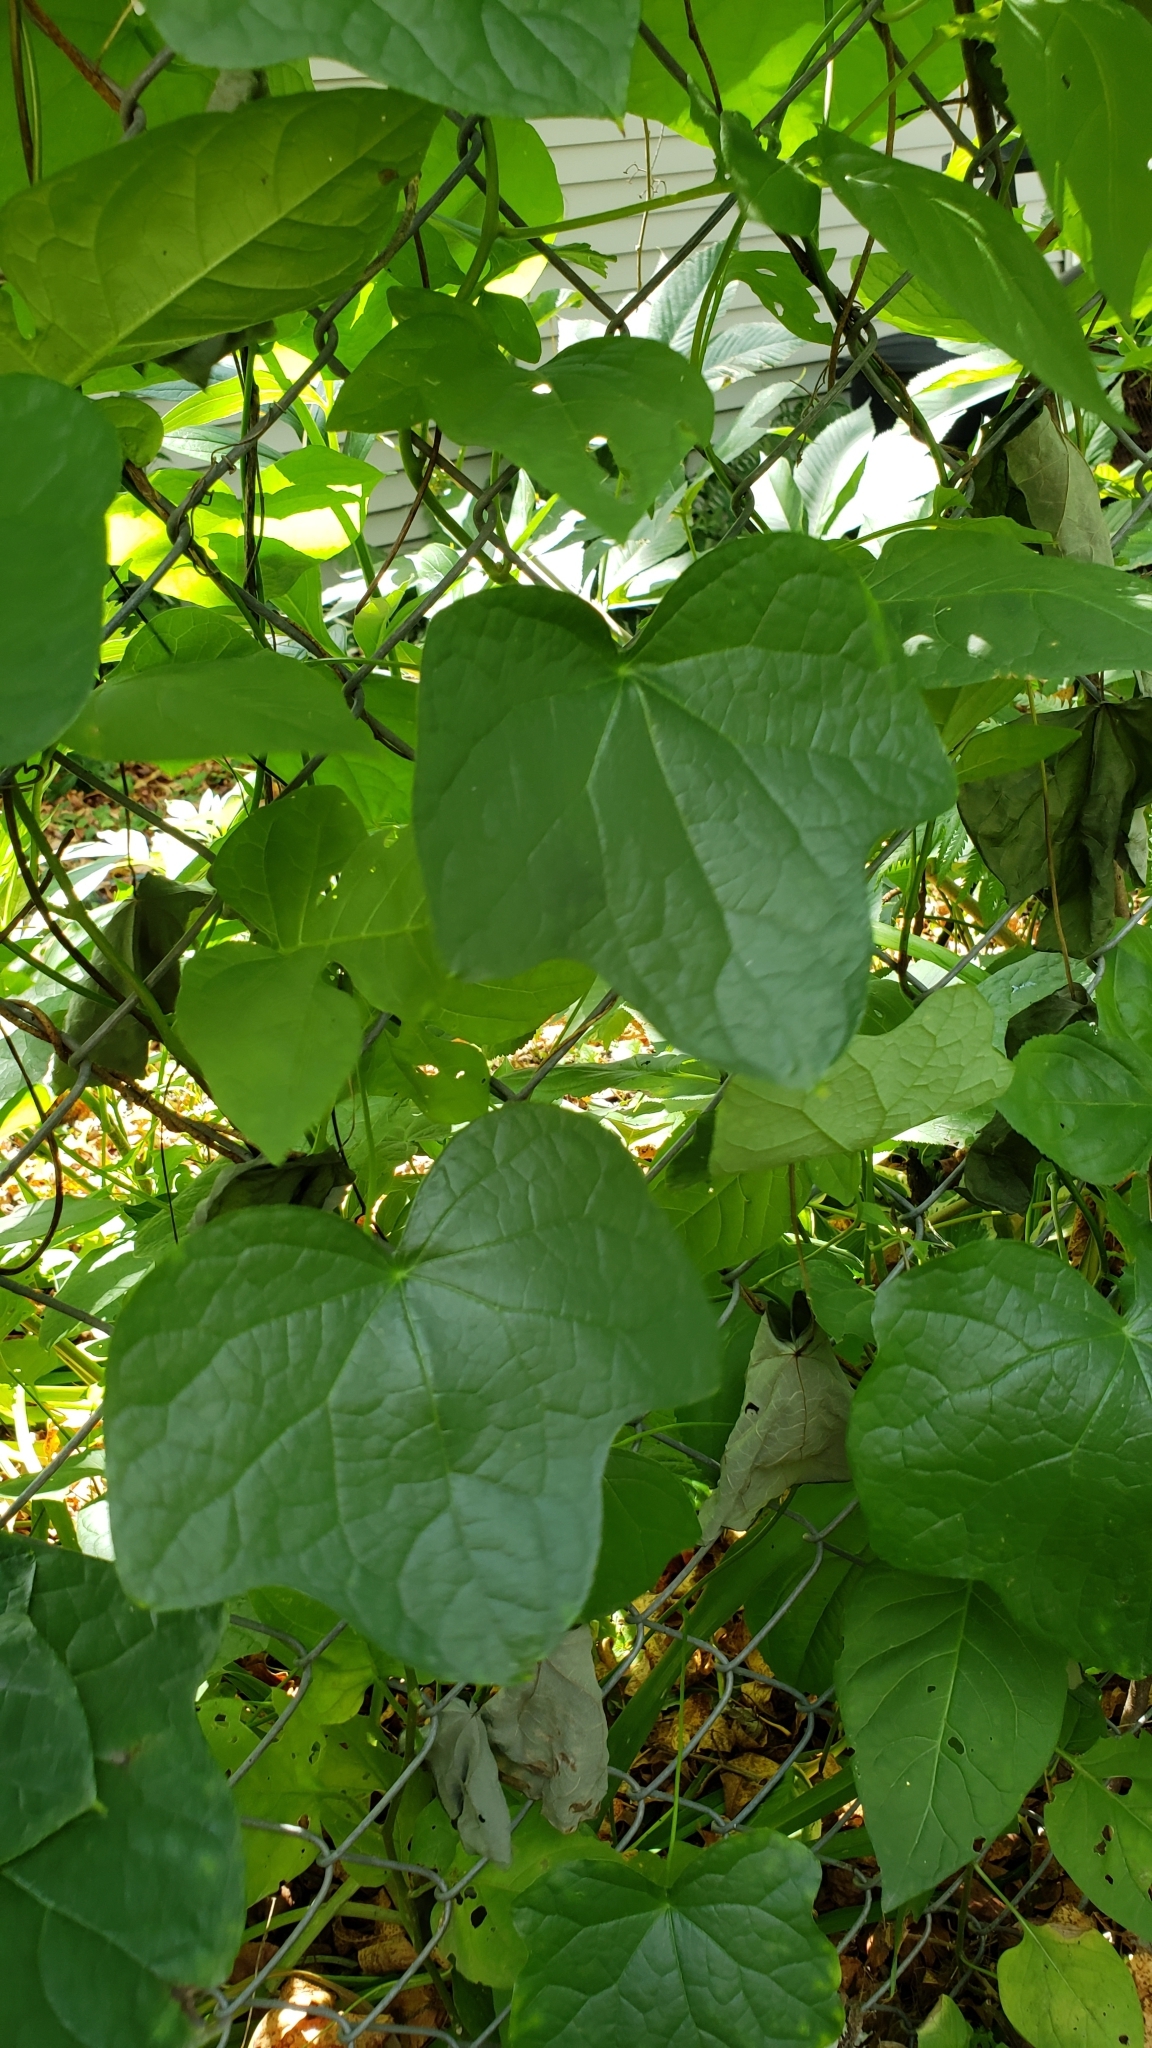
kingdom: Plantae
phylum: Tracheophyta
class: Magnoliopsida
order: Ranunculales
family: Menispermaceae
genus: Menispermum
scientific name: Menispermum canadense
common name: Moonseed
